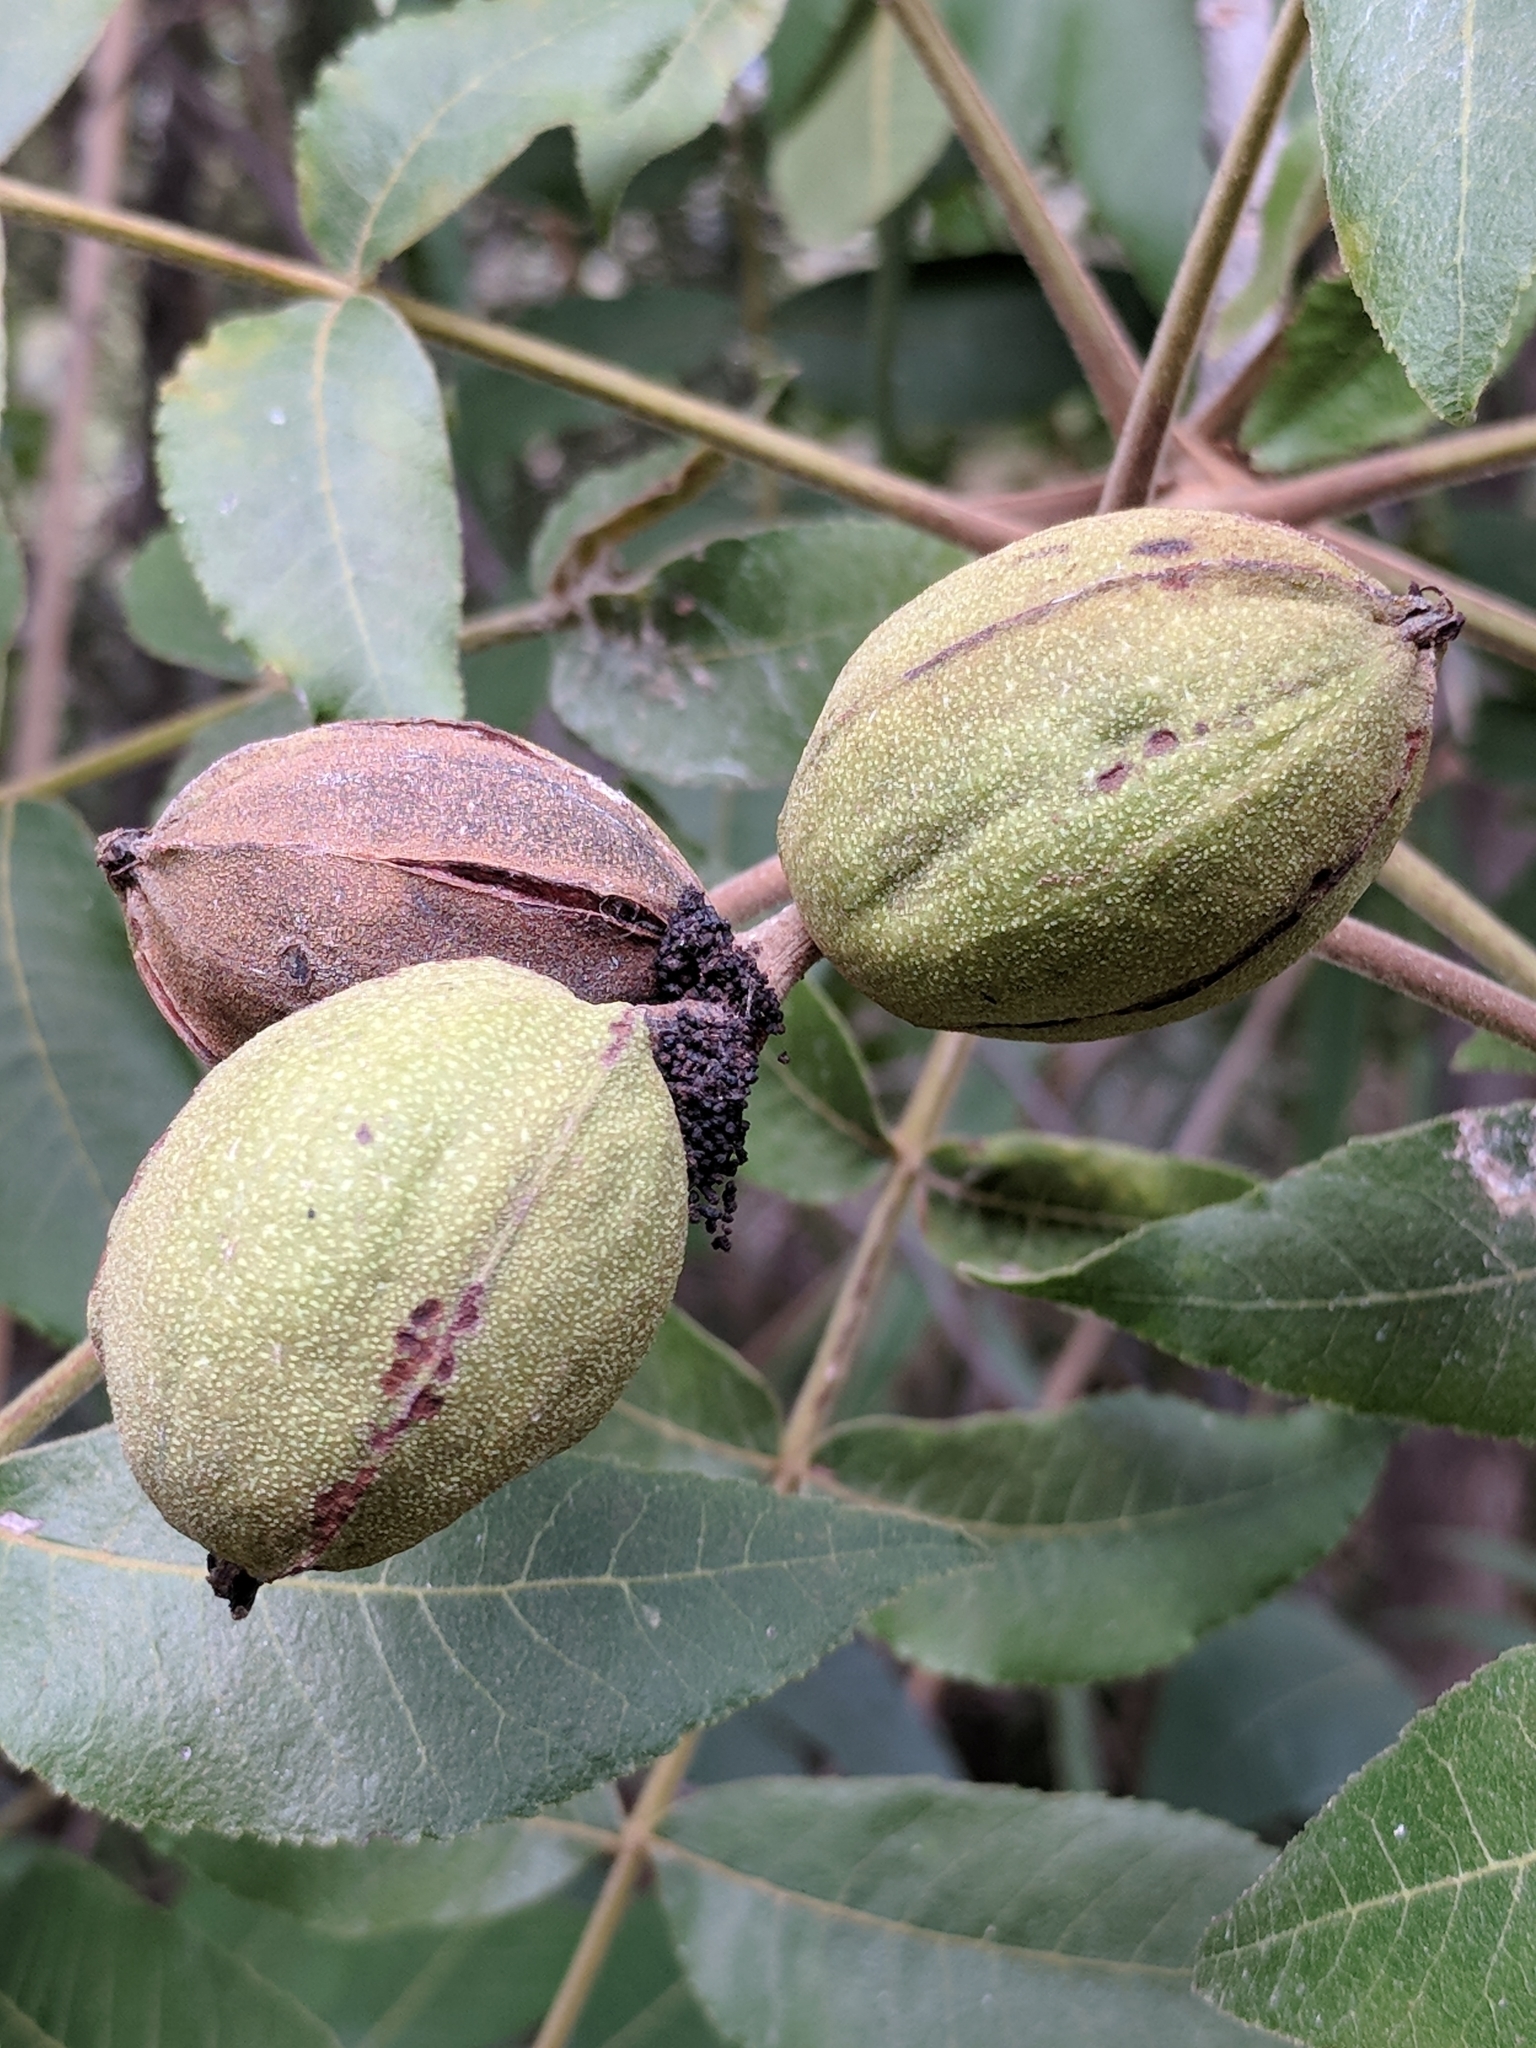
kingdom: Plantae
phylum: Tracheophyta
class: Magnoliopsida
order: Fagales
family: Juglandaceae
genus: Carya
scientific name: Carya illinoinensis
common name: Pecan
